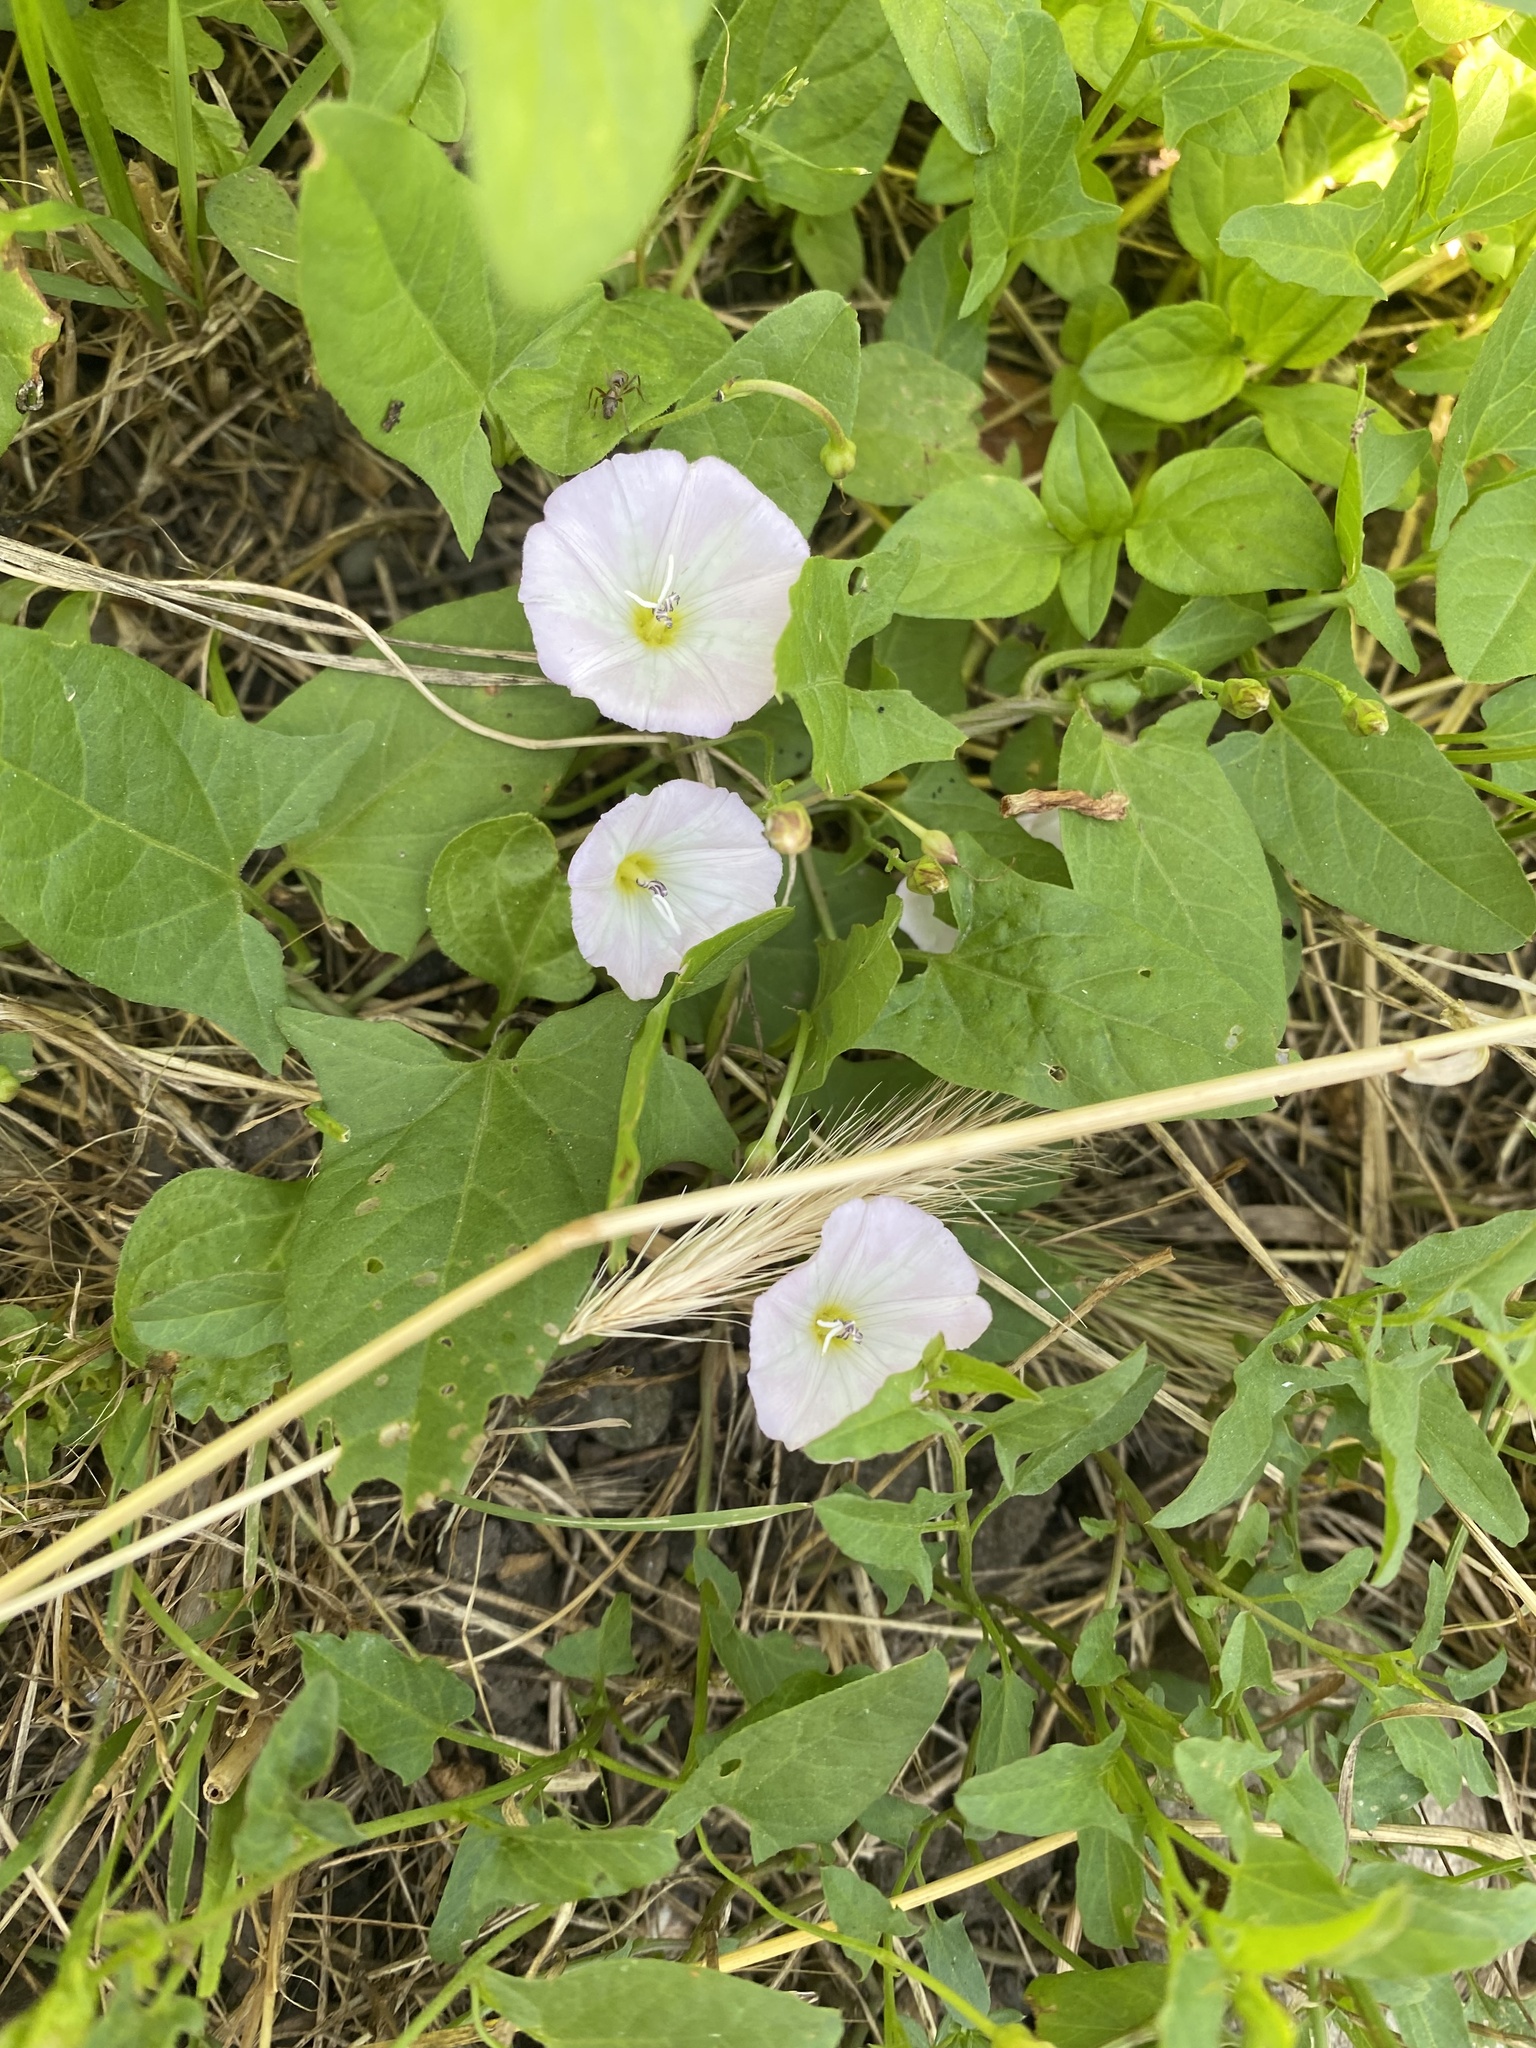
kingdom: Plantae
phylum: Tracheophyta
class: Magnoliopsida
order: Solanales
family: Convolvulaceae
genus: Convolvulus
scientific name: Convolvulus arvensis
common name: Field bindweed
